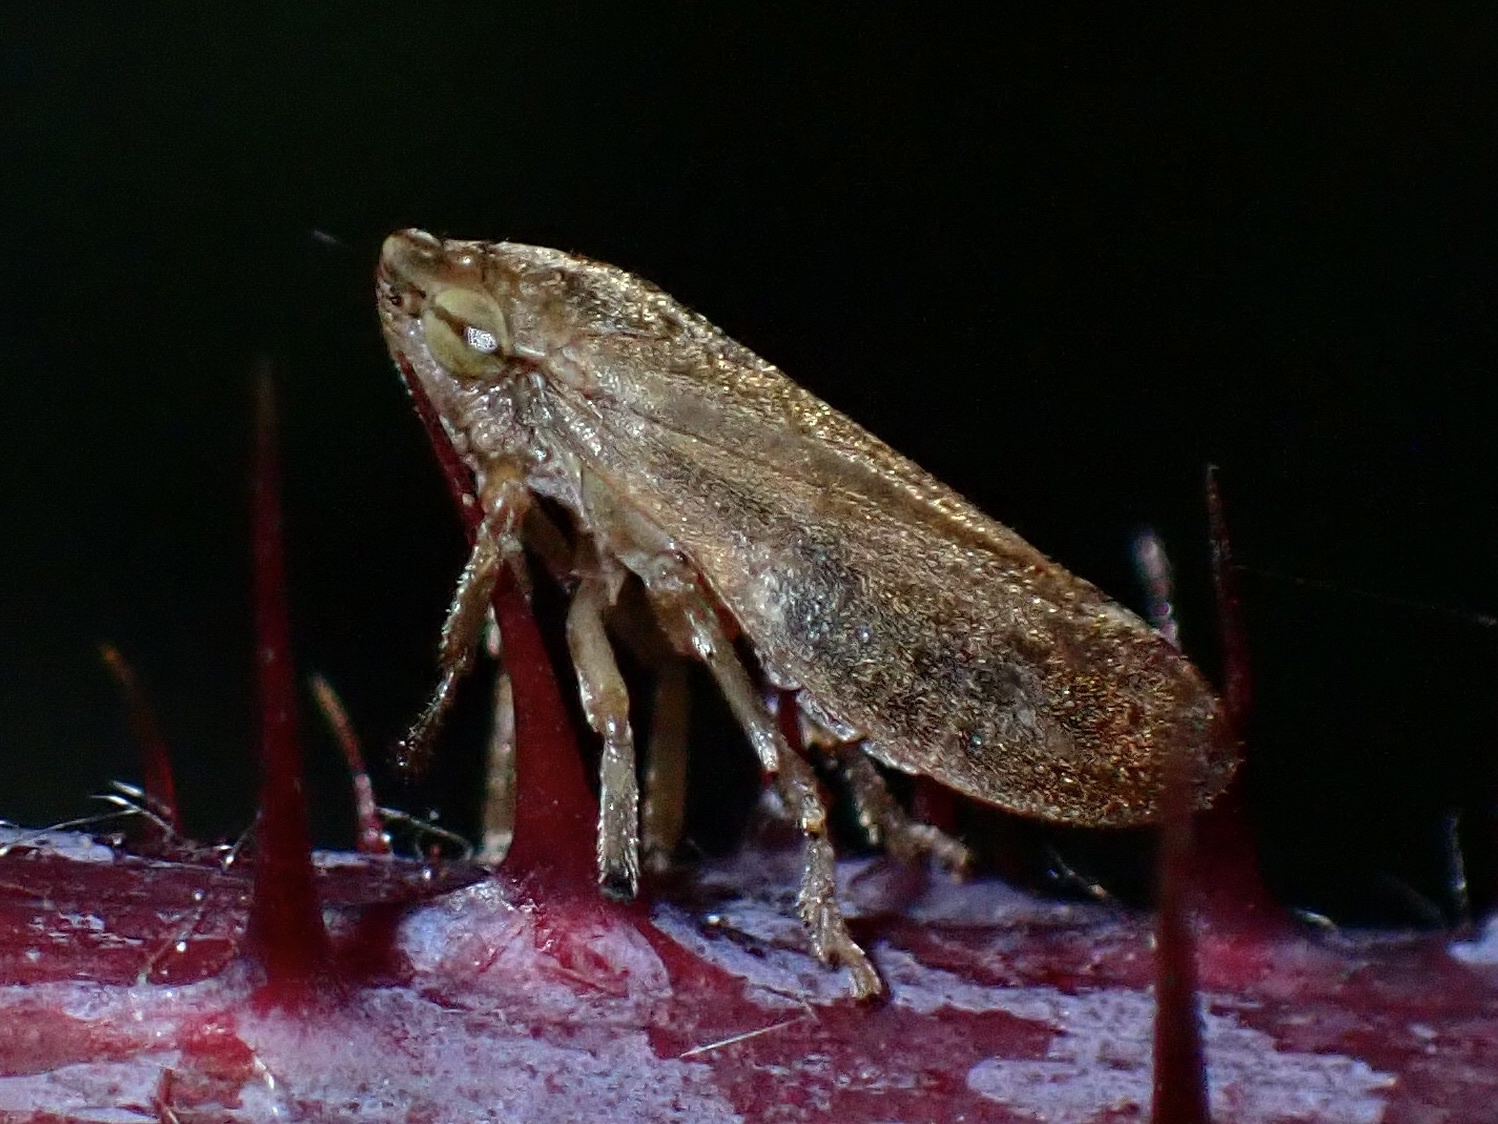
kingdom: Animalia
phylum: Arthropoda
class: Insecta
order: Hemiptera
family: Aphrophoridae
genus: Philaenus
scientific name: Philaenus spumarius
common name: Meadow spittlebug
